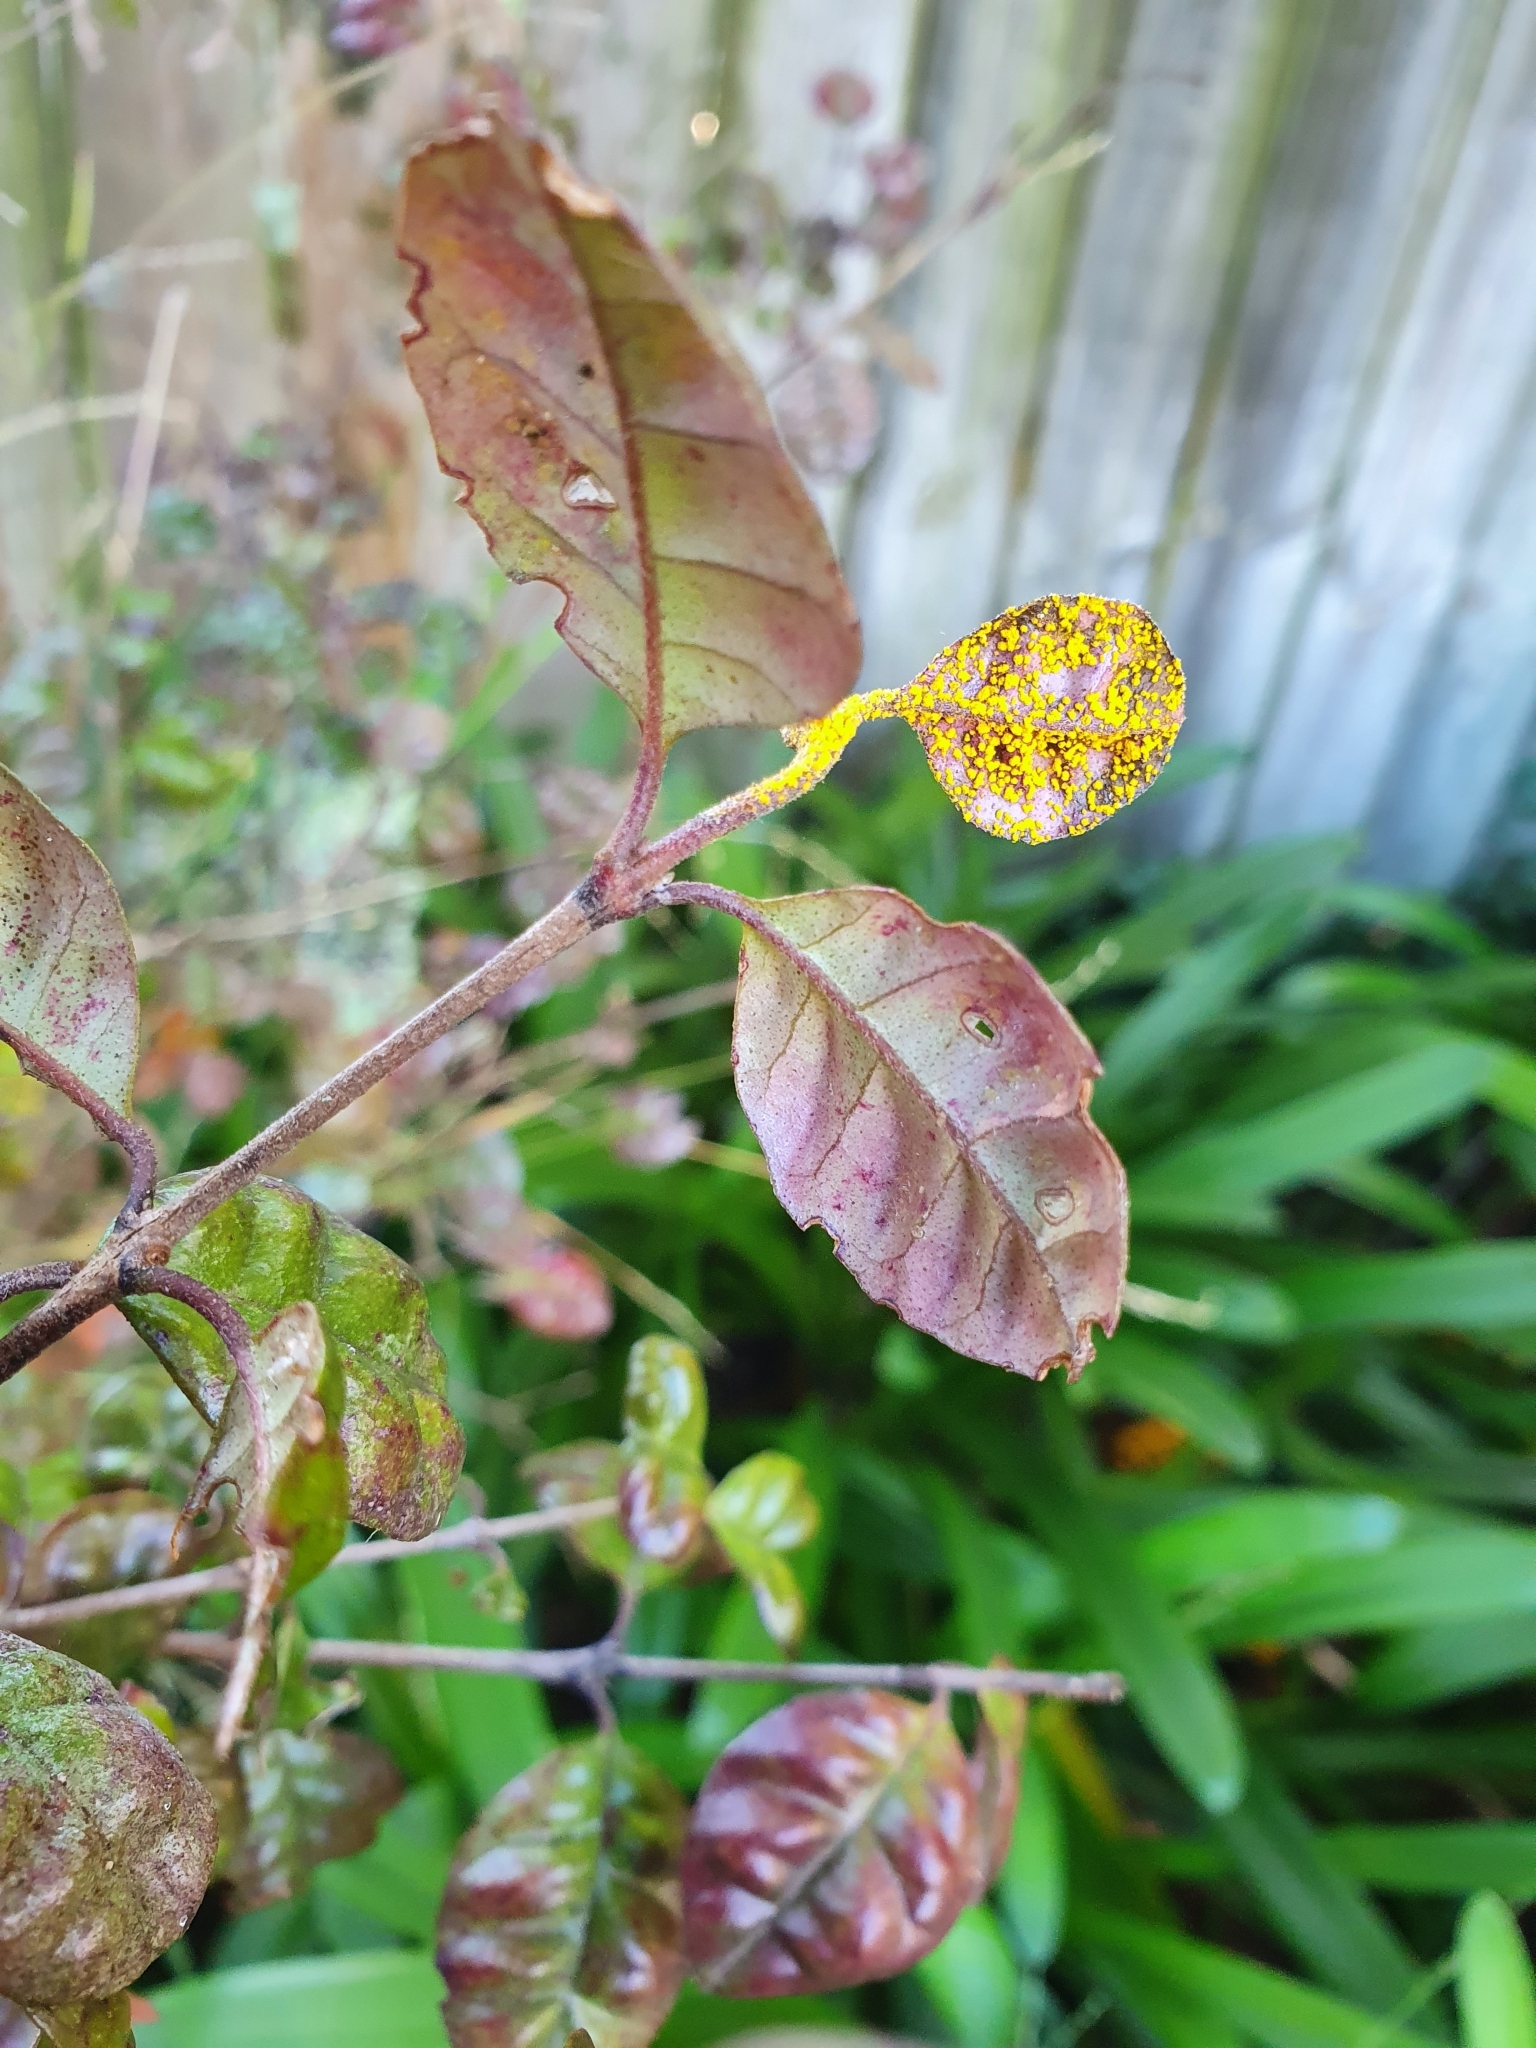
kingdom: Fungi
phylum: Basidiomycota
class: Pucciniomycetes
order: Pucciniales
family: Sphaerophragmiaceae
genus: Austropuccinia
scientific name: Austropuccinia psidii
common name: Myrtle rust
